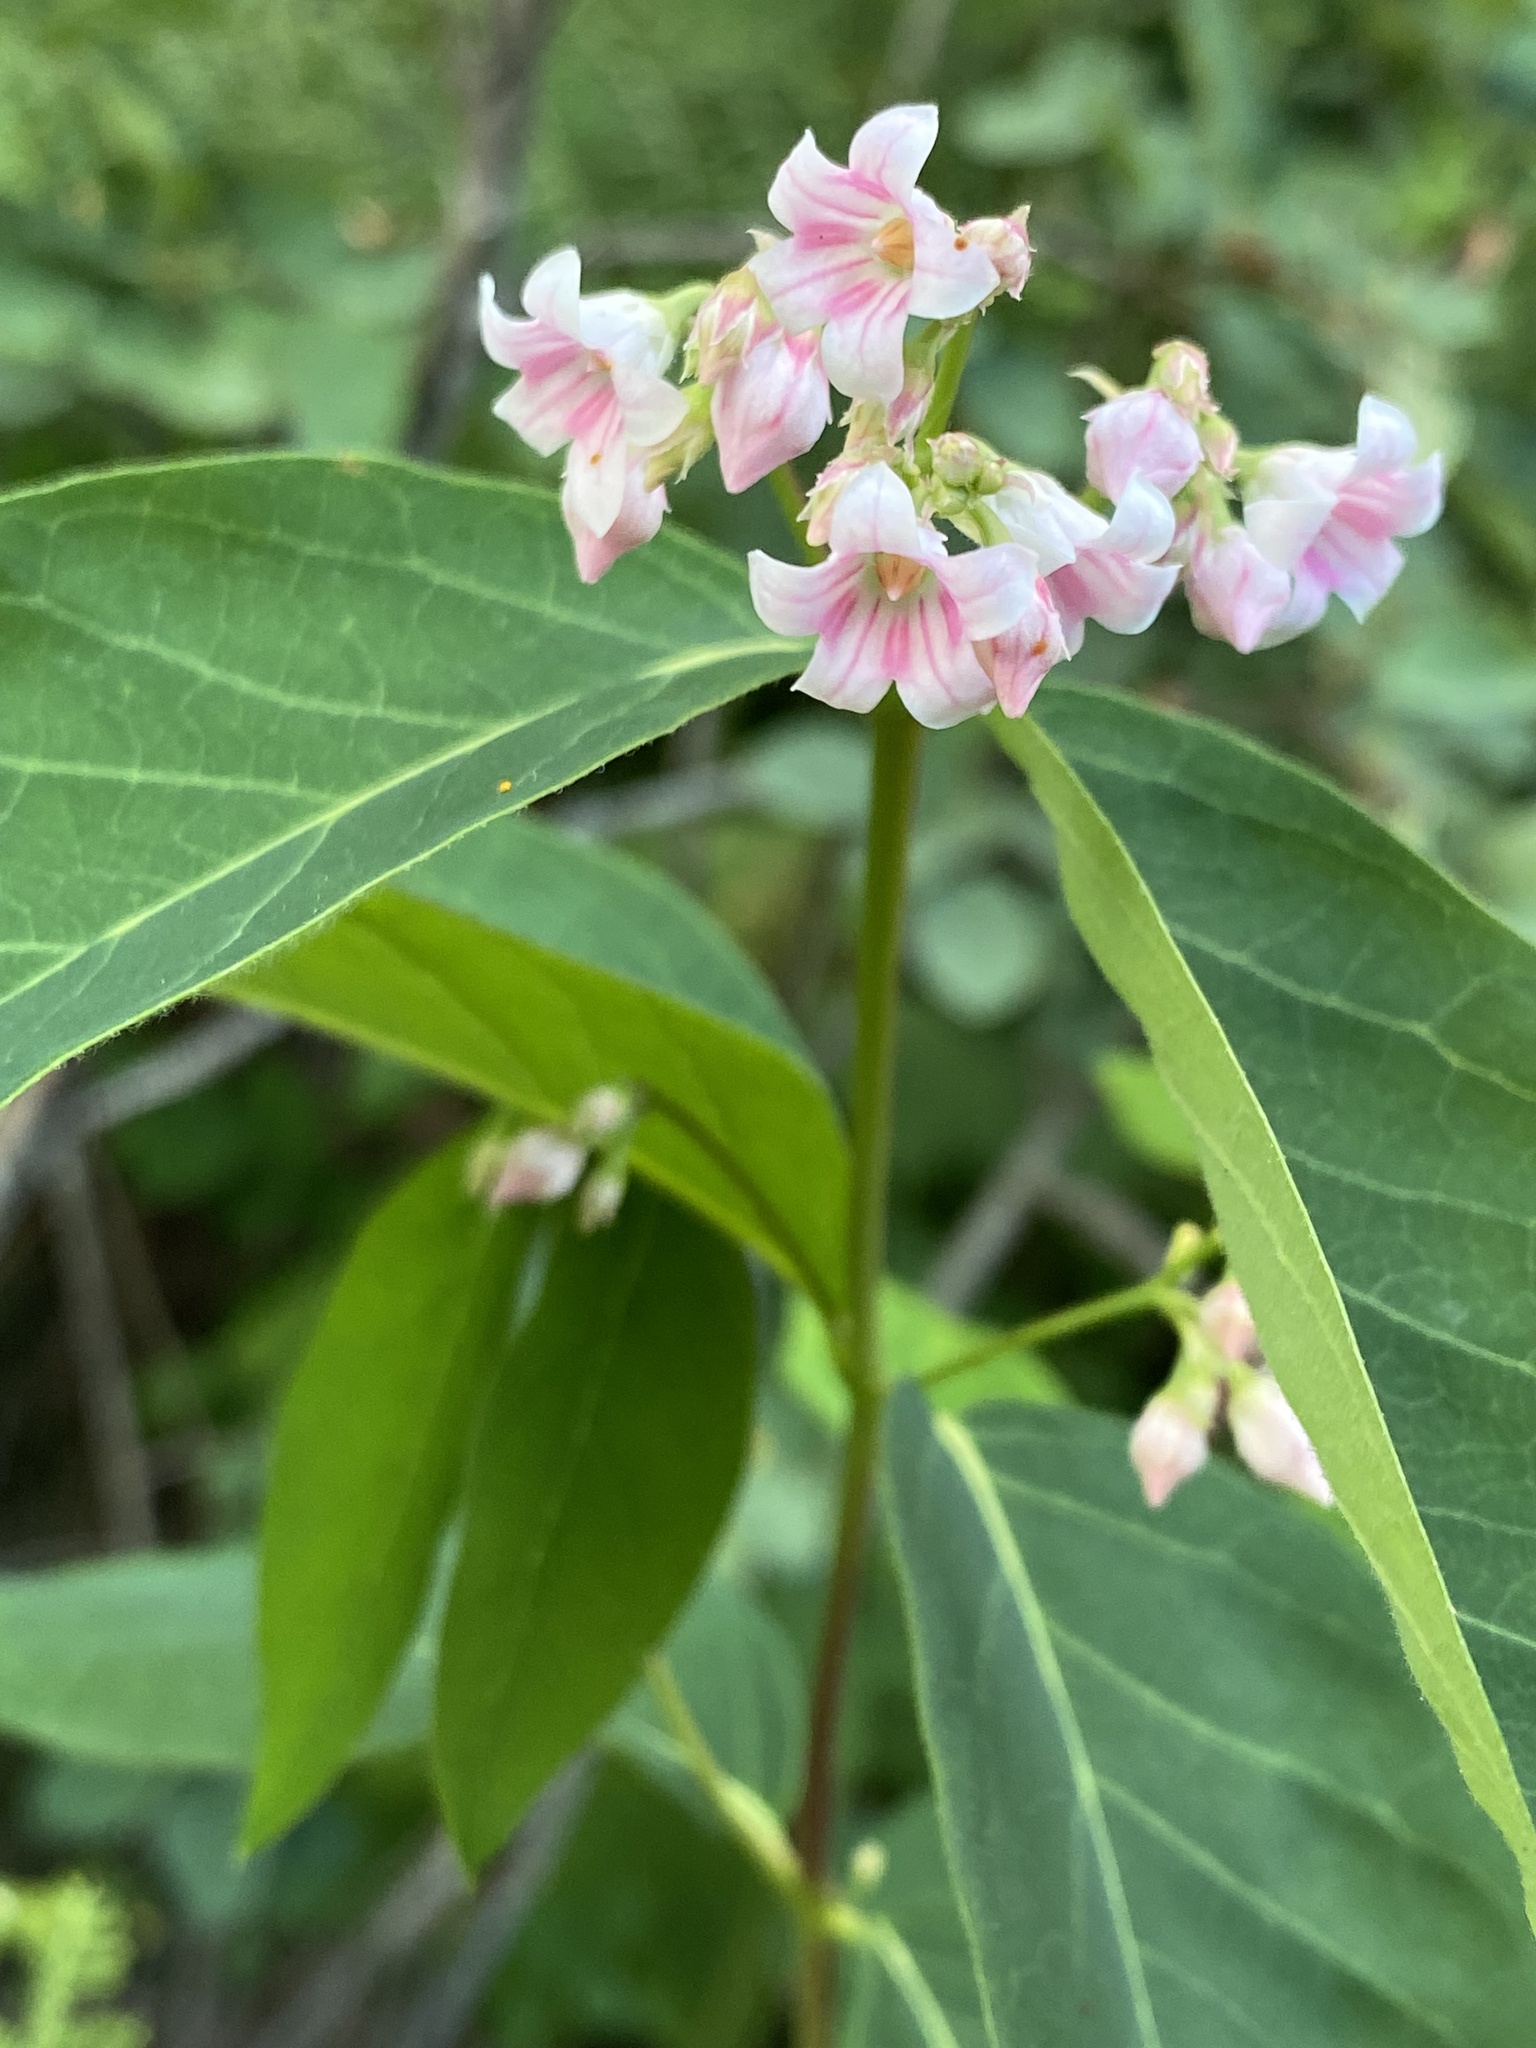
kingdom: Plantae
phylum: Tracheophyta
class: Magnoliopsida
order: Gentianales
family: Apocynaceae
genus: Apocynum
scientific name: Apocynum androsaemifolium
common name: Spreading dogbane
